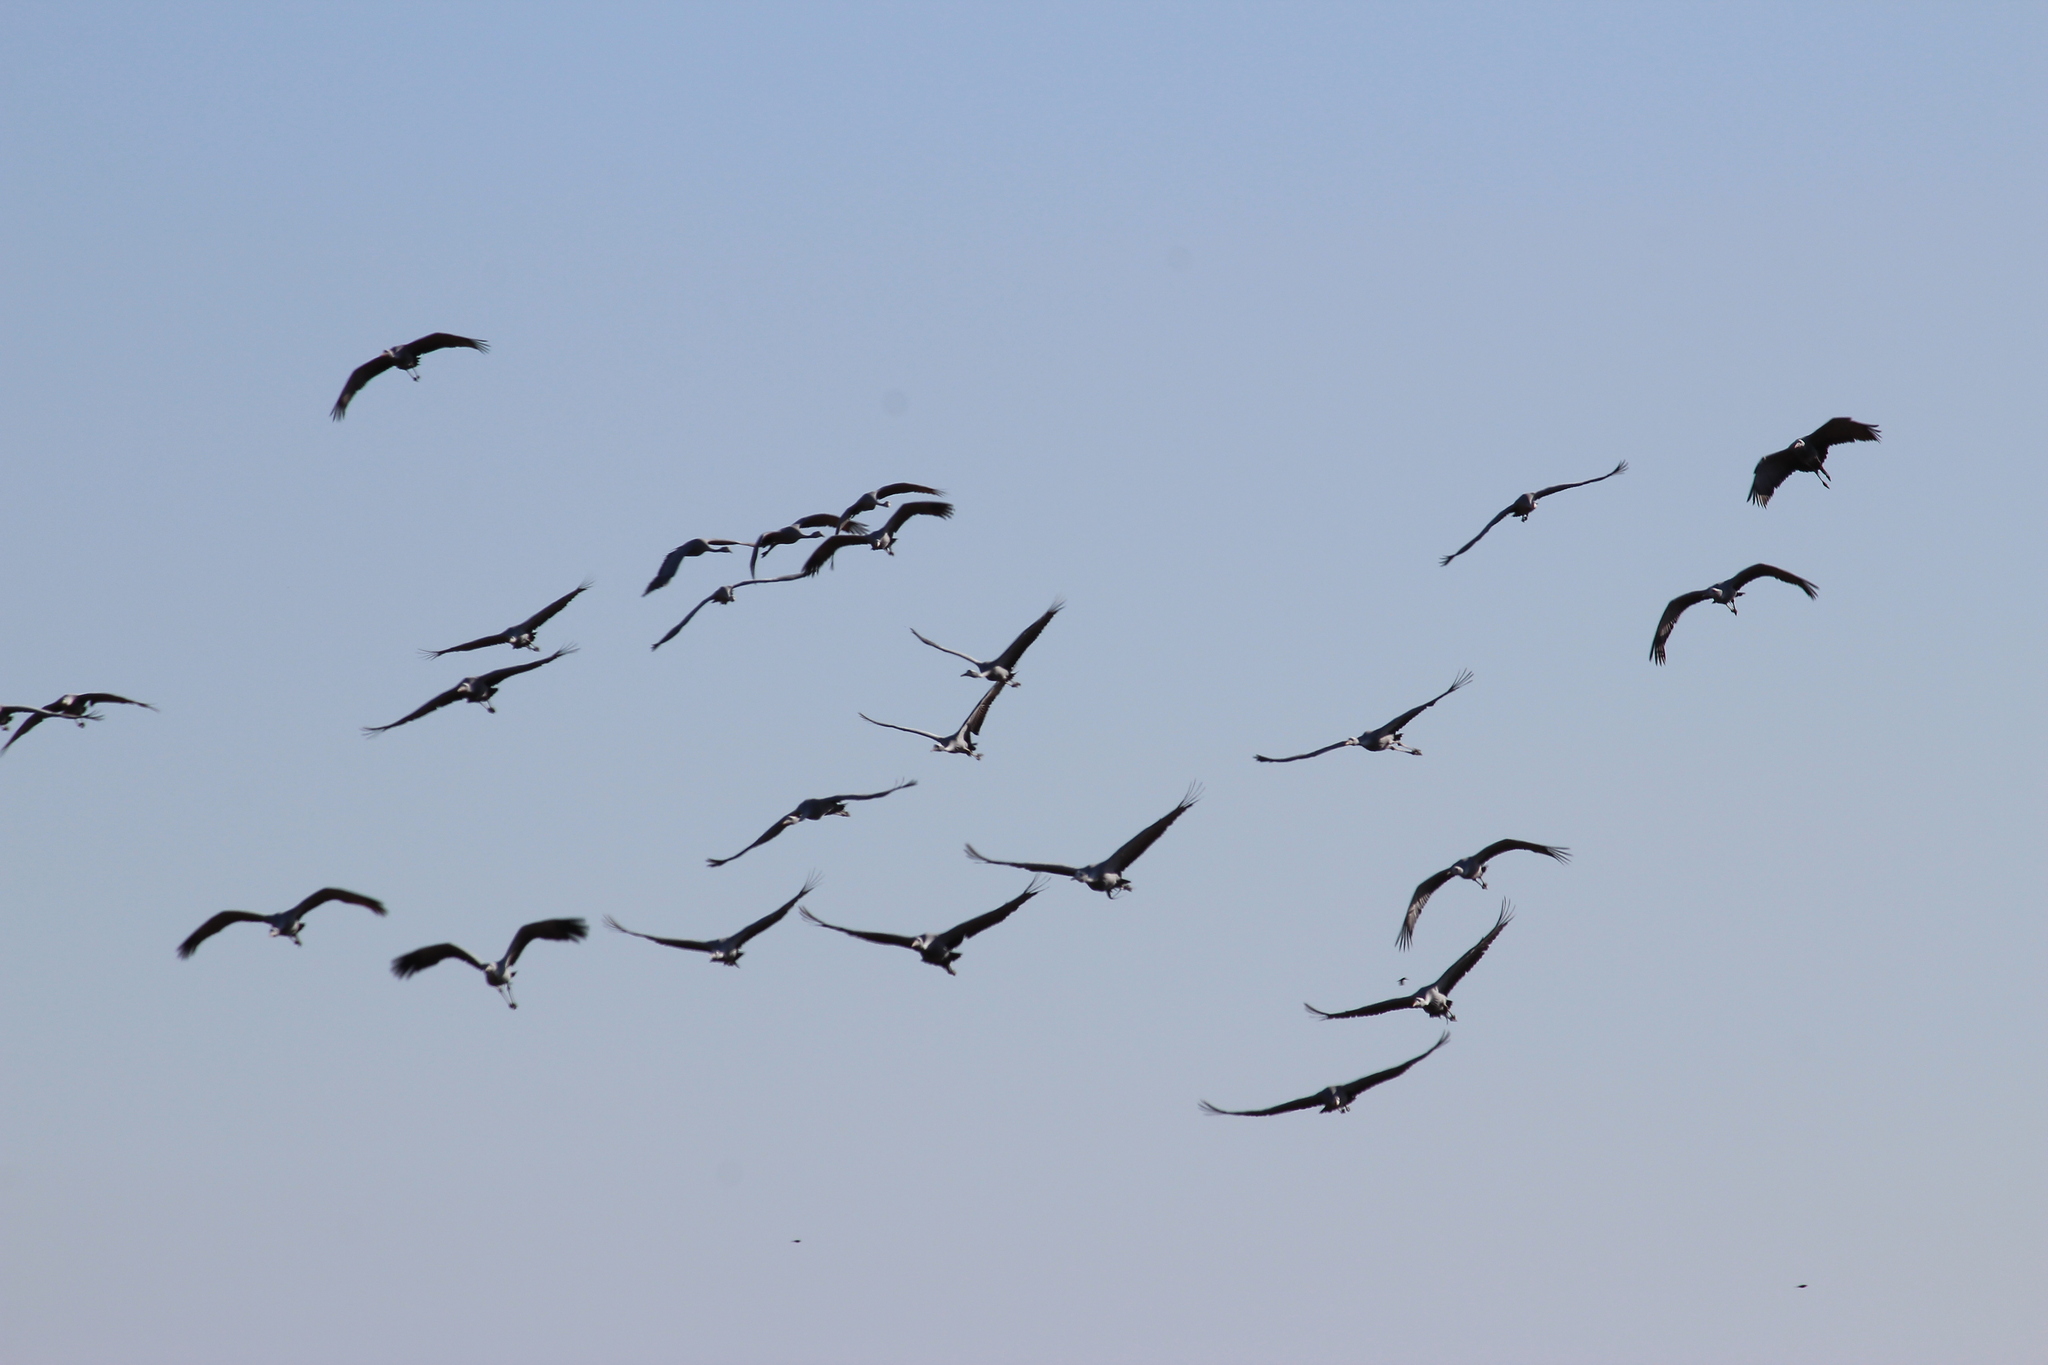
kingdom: Animalia
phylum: Chordata
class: Aves
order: Gruiformes
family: Gruidae
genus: Anthropoides
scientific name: Anthropoides paradiseus
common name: Blue crane
